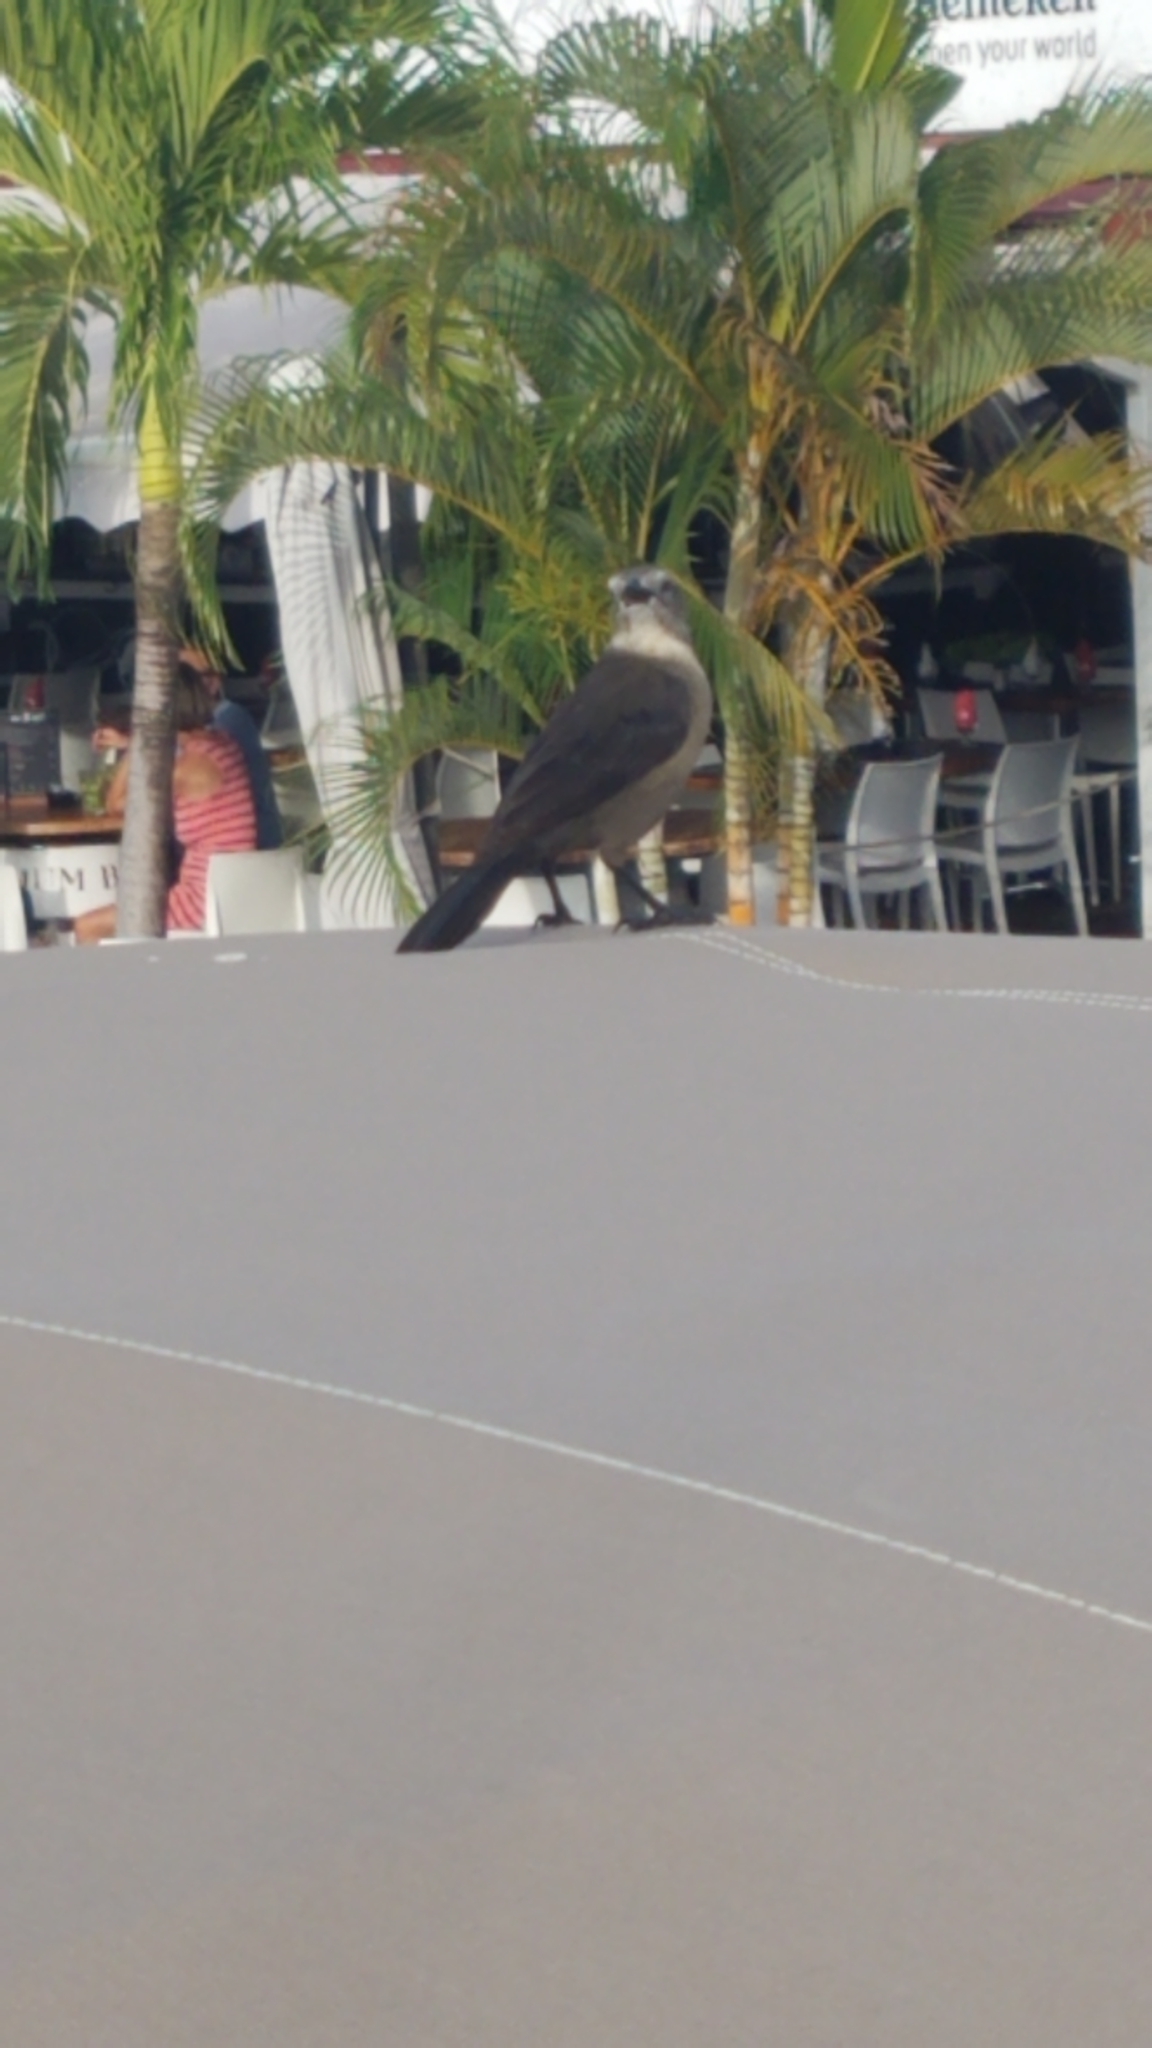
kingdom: Animalia
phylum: Chordata
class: Aves
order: Passeriformes
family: Icteridae
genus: Quiscalus
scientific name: Quiscalus lugubris
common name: Carib grackle
